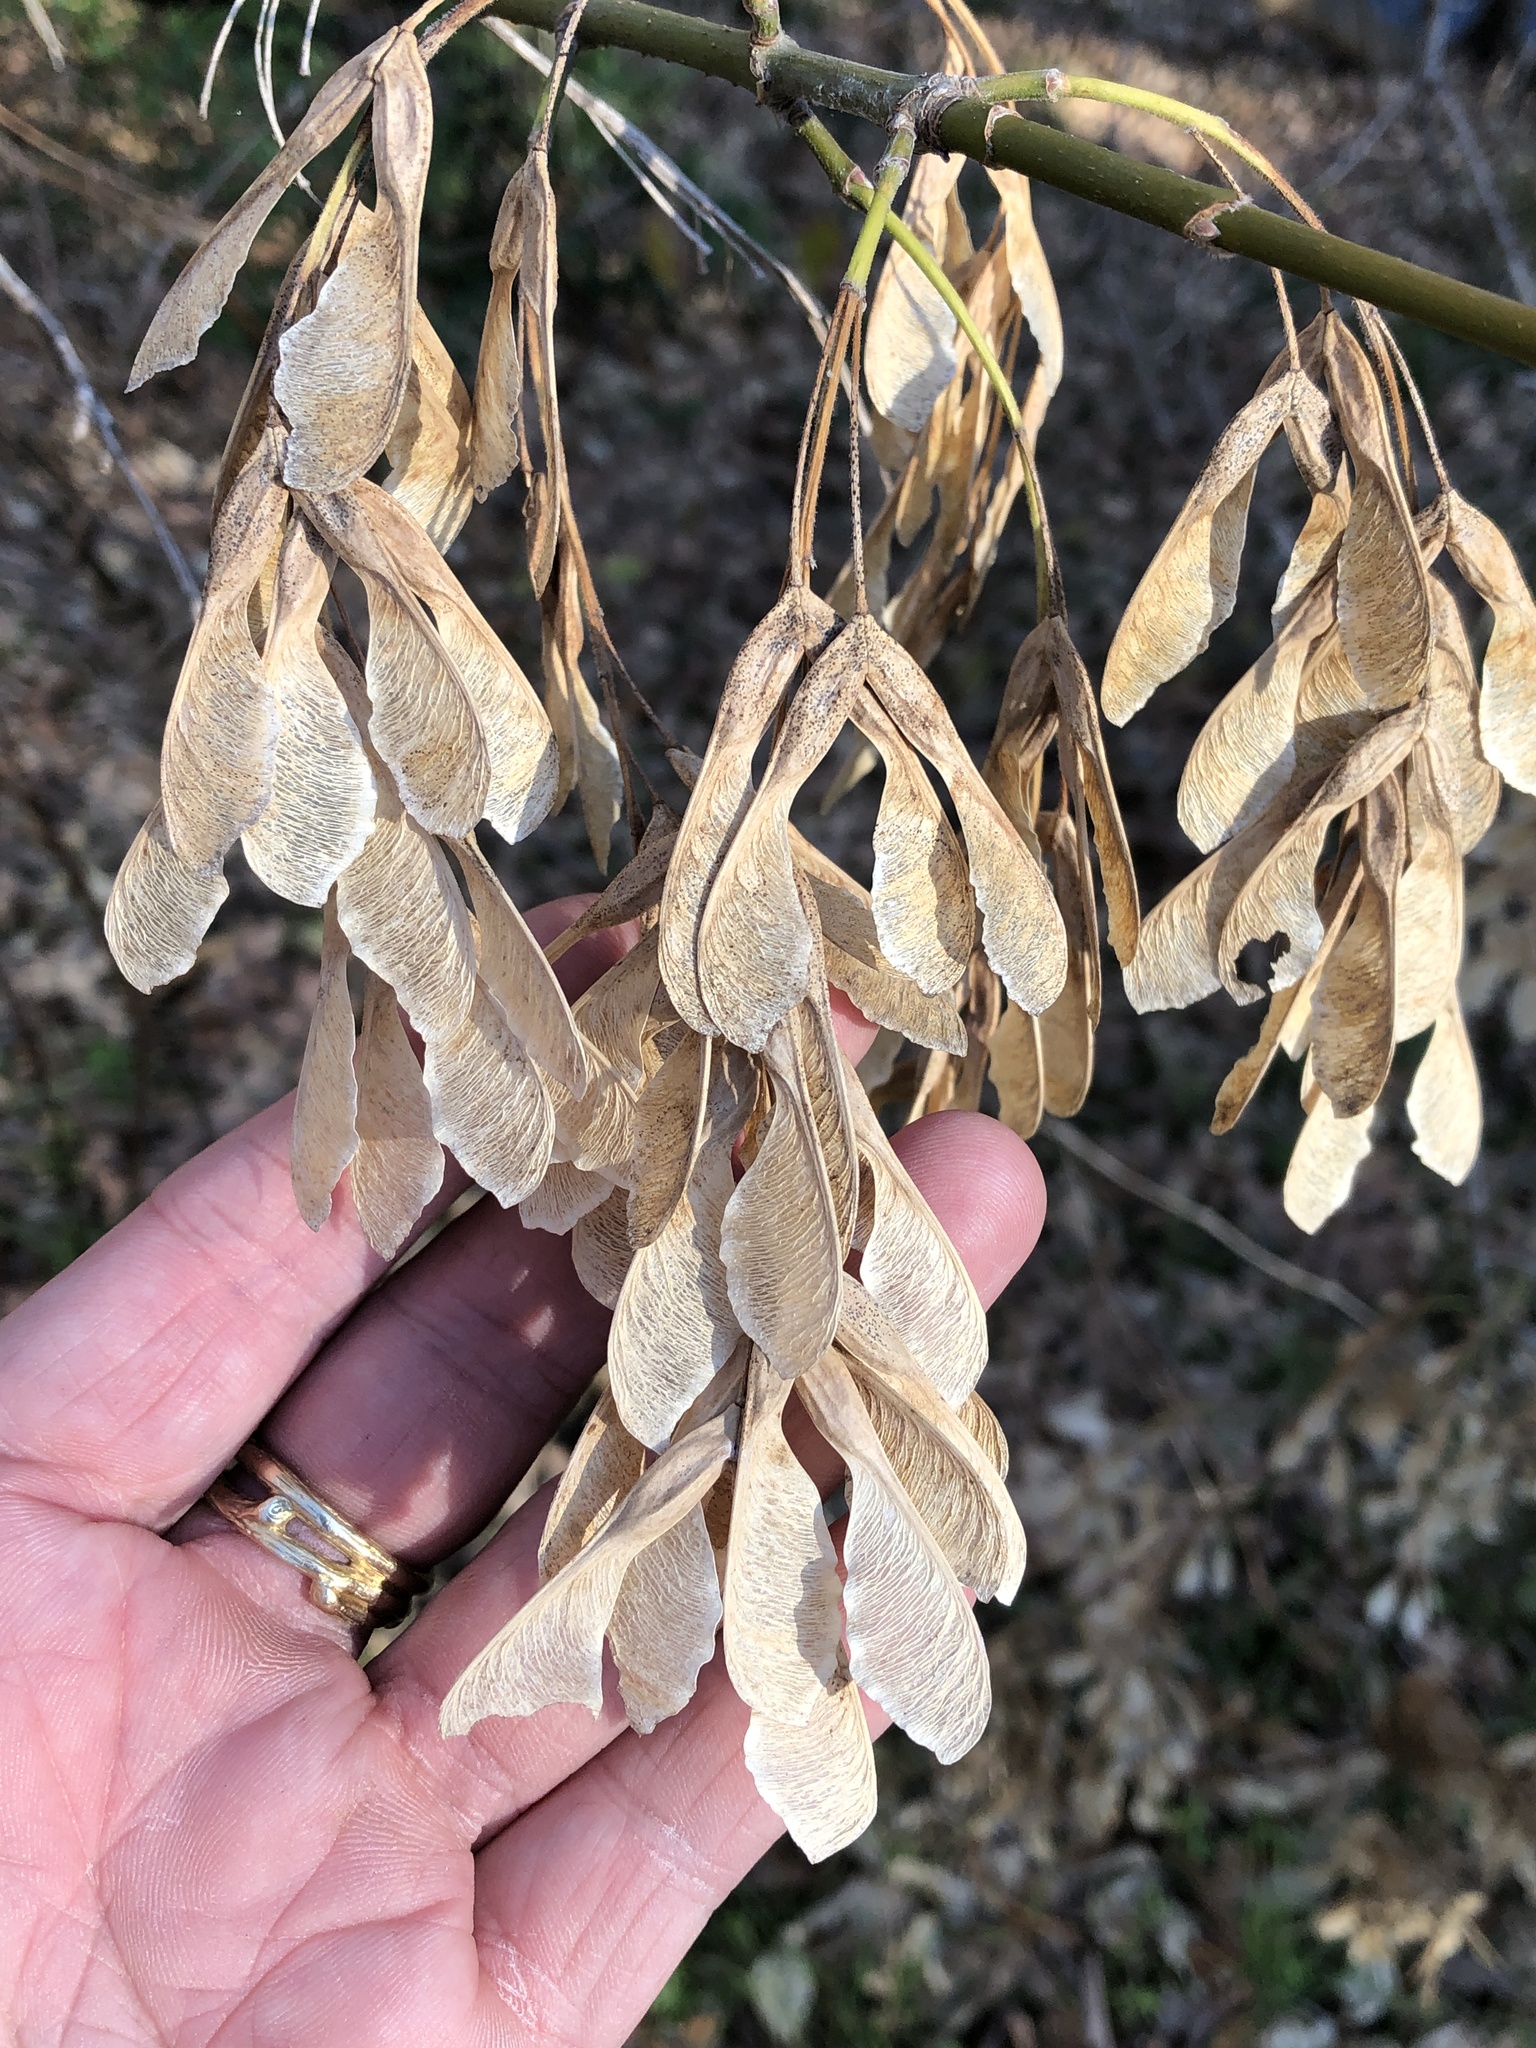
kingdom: Plantae
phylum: Tracheophyta
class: Magnoliopsida
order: Sapindales
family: Sapindaceae
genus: Acer
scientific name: Acer negundo
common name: Ashleaf maple
